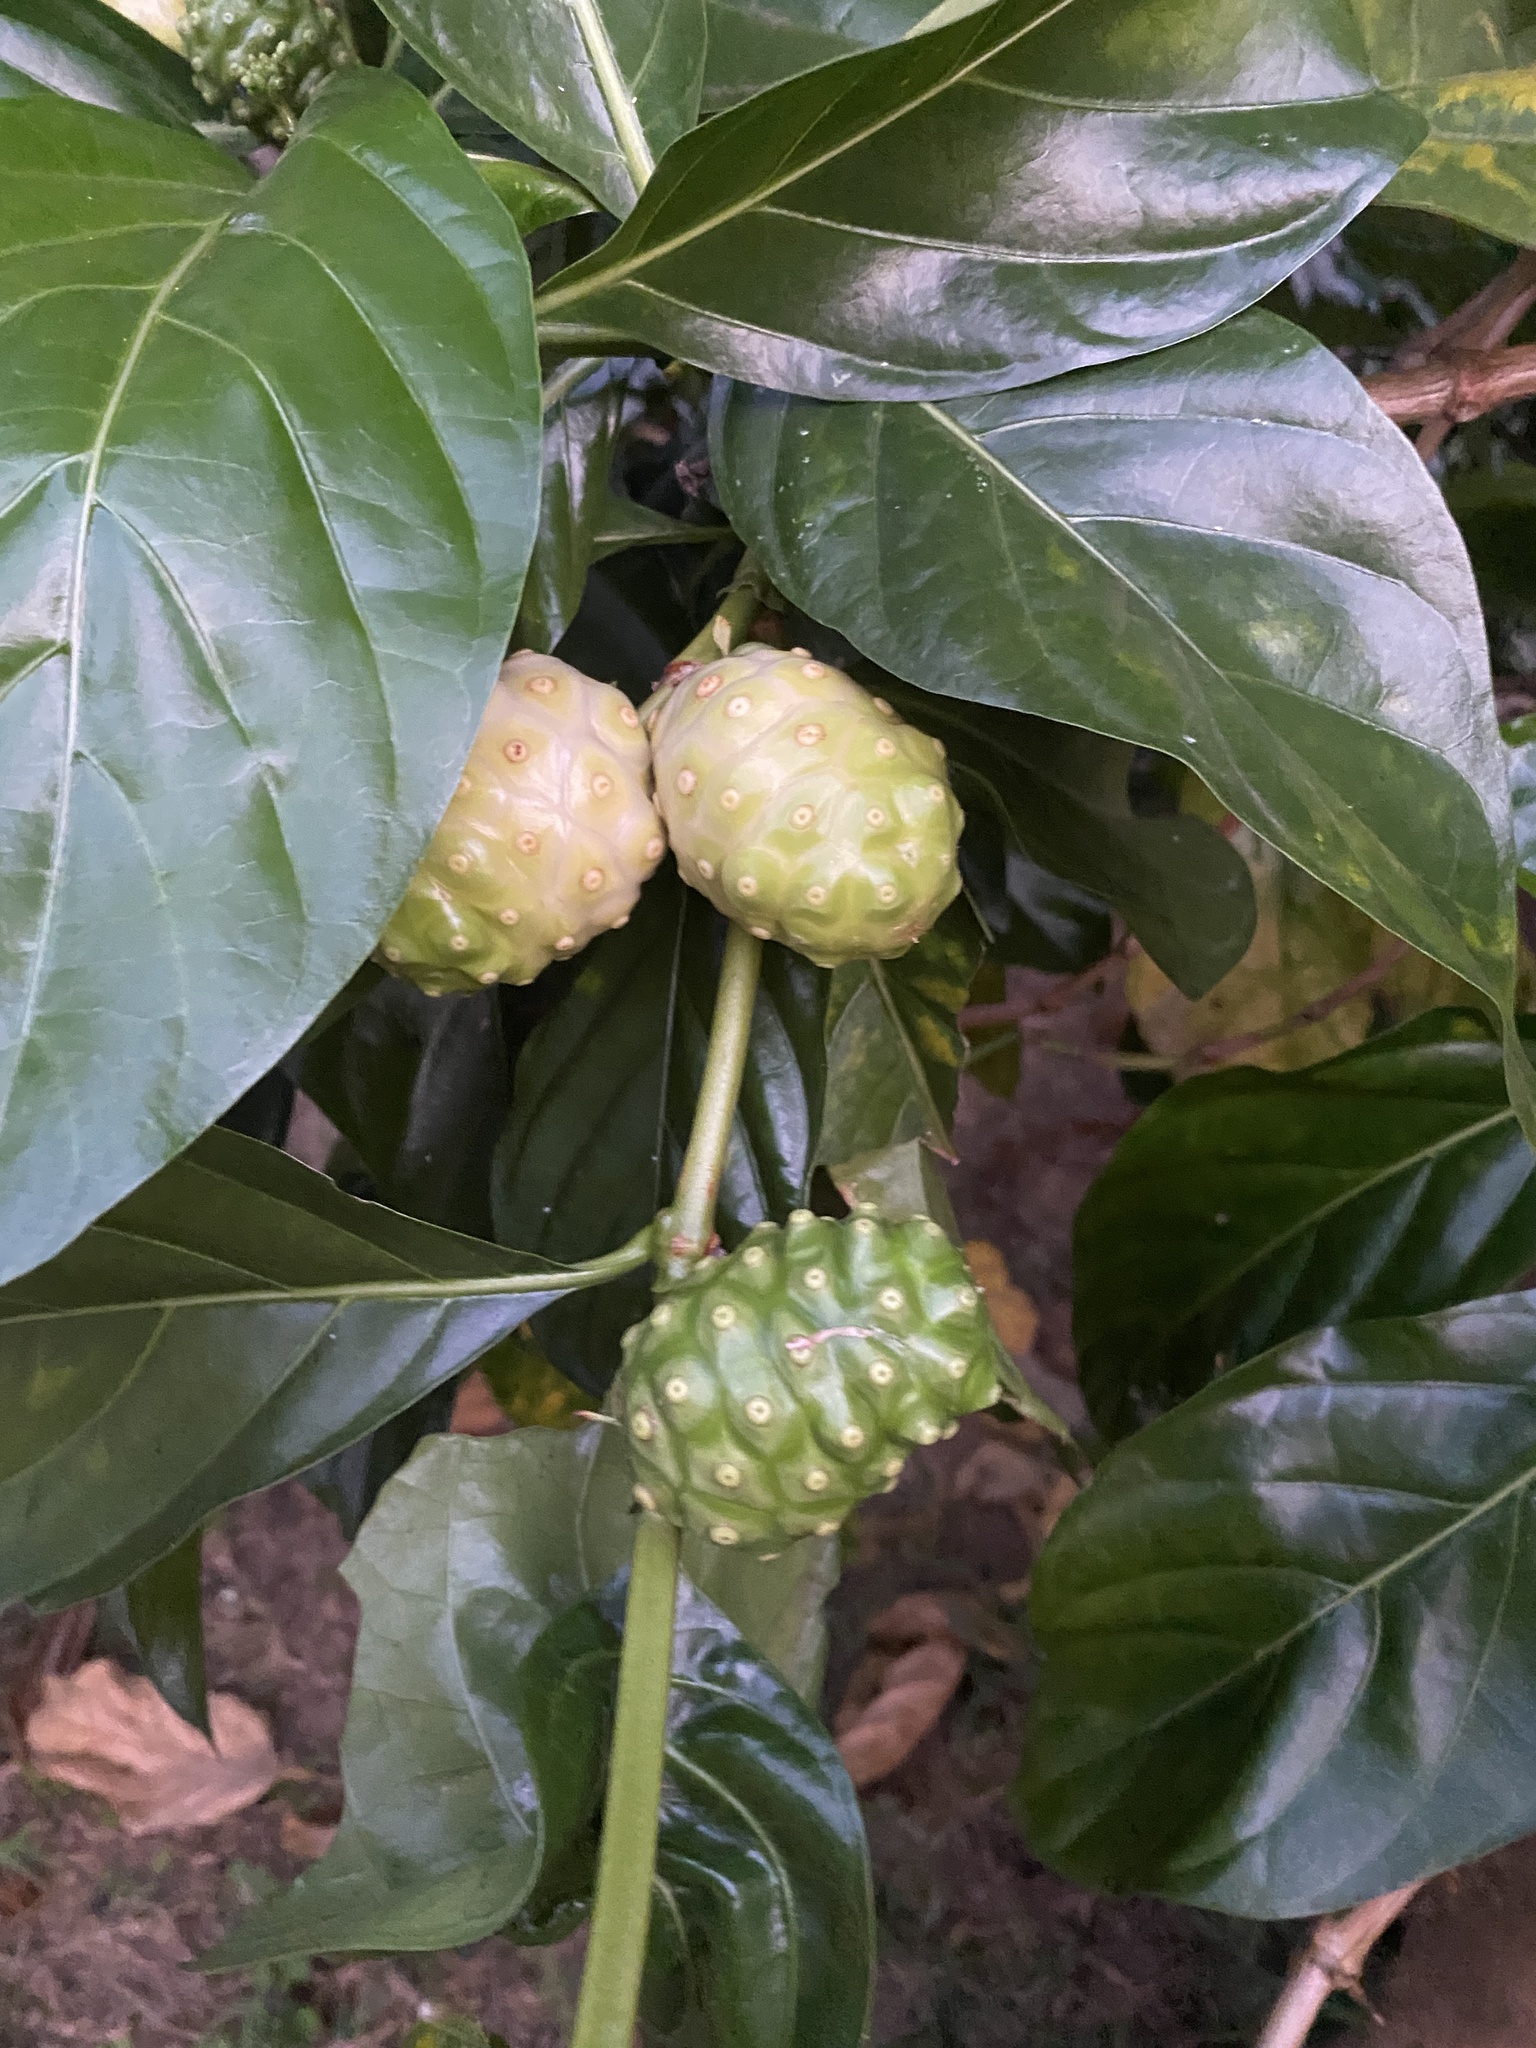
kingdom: Plantae
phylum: Tracheophyta
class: Magnoliopsida
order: Gentianales
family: Rubiaceae
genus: Morinda
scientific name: Morinda citrifolia
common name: Indian-mulberry
